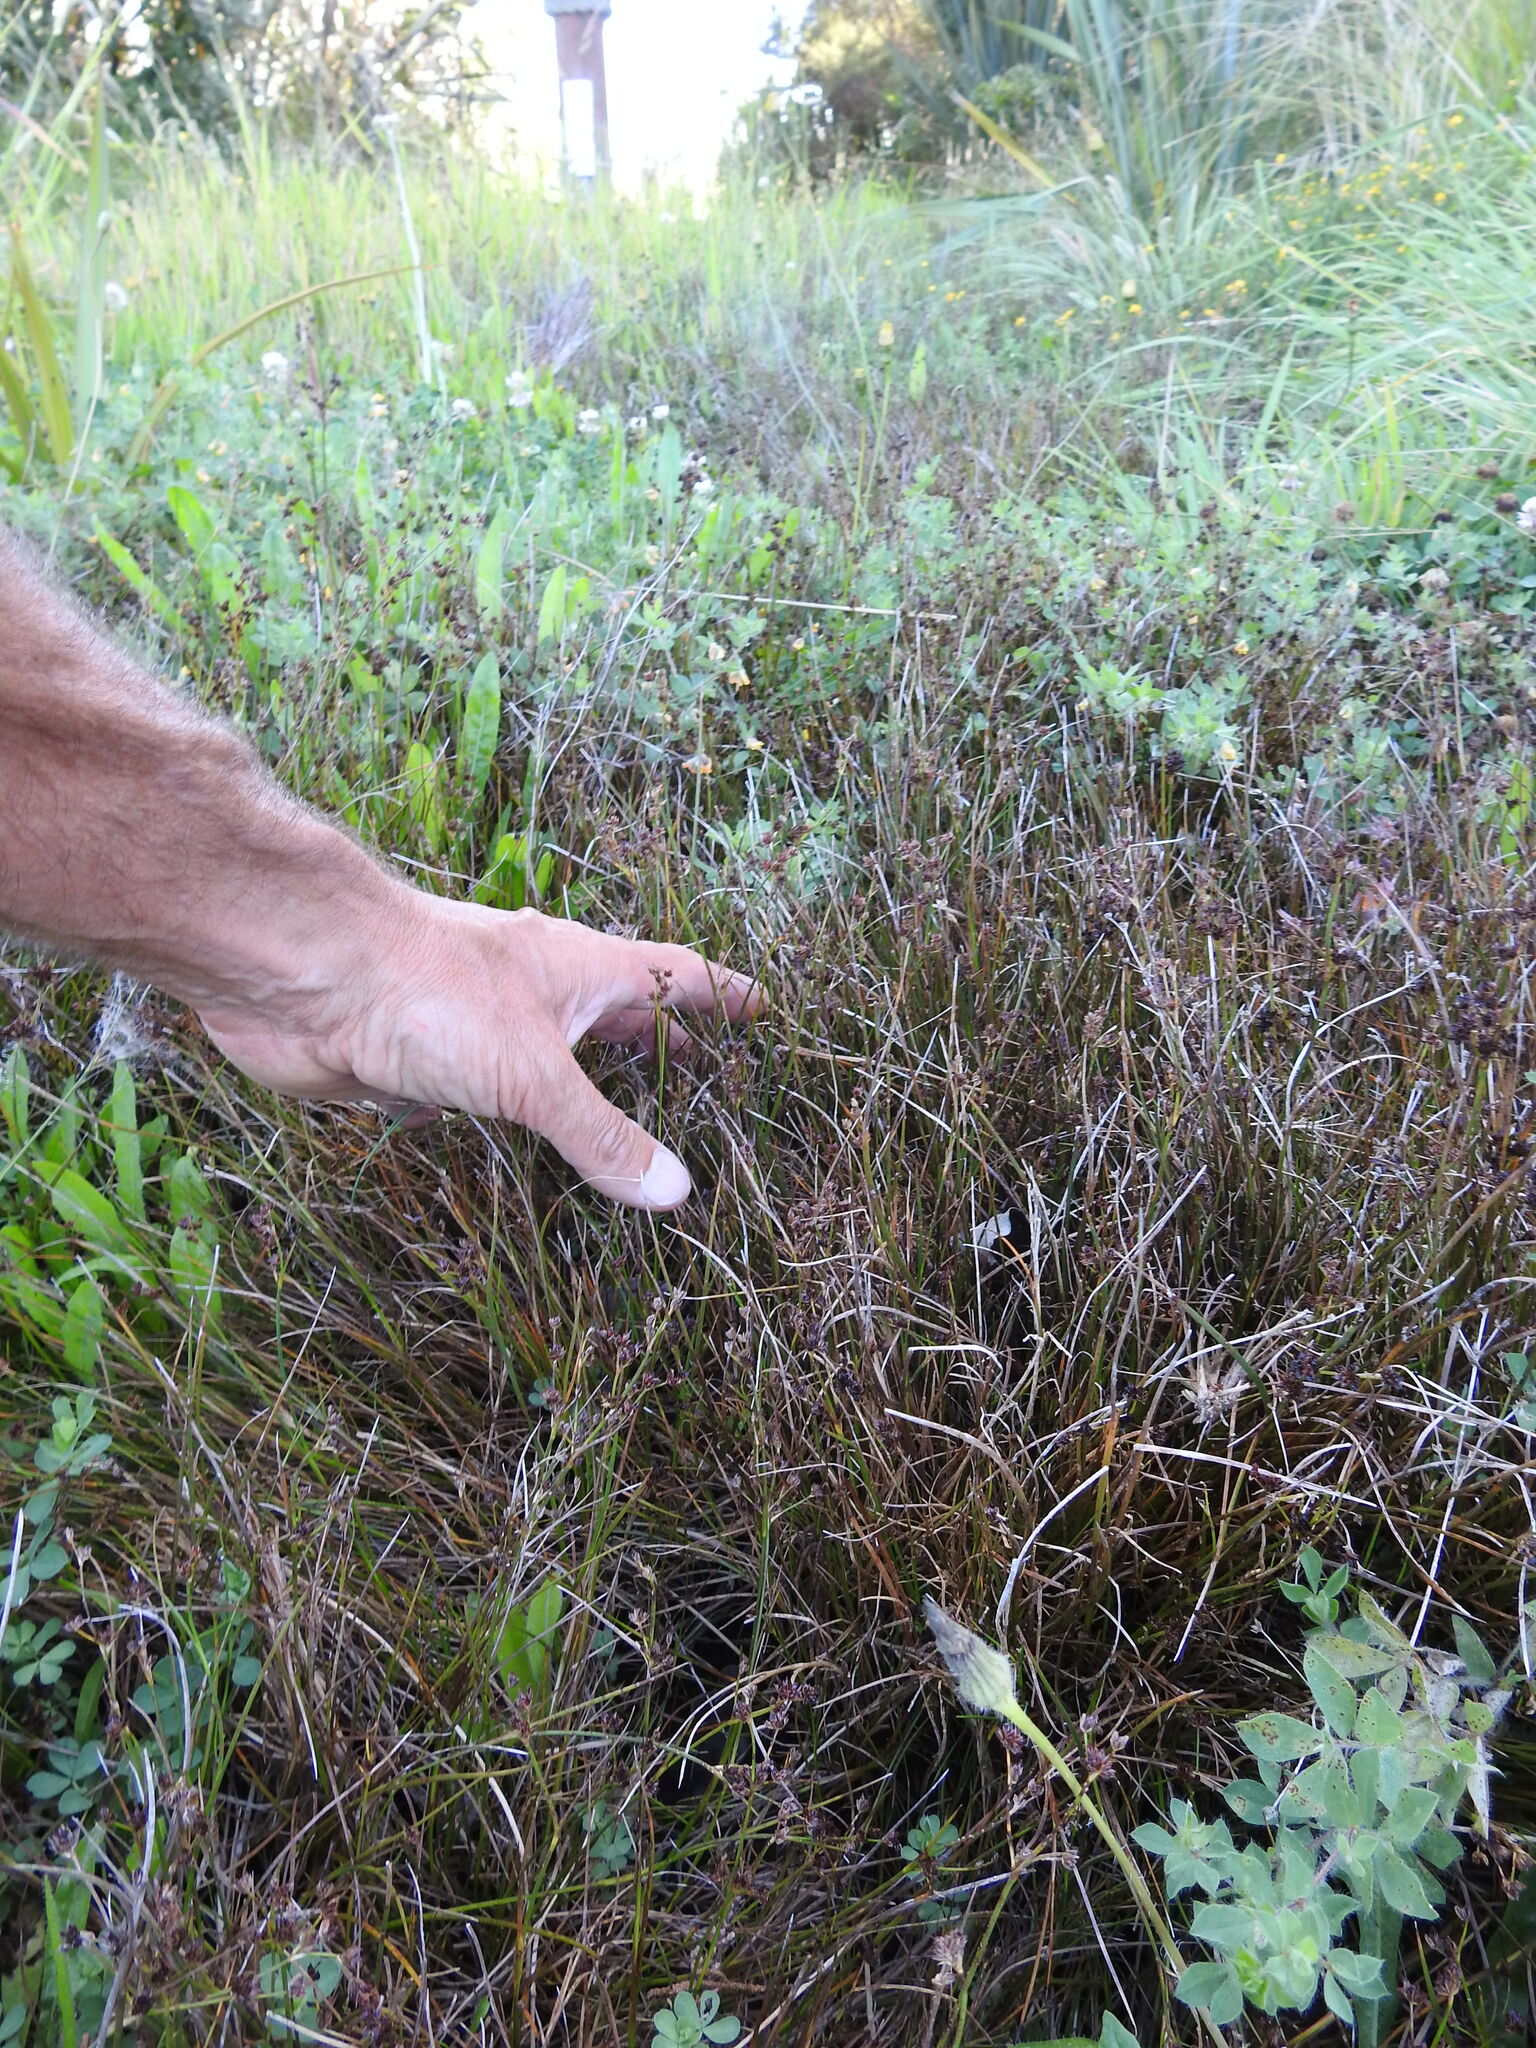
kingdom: Plantae
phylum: Tracheophyta
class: Liliopsida
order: Poales
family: Juncaceae
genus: Juncus
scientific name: Juncus articulatus
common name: Jointed rush
